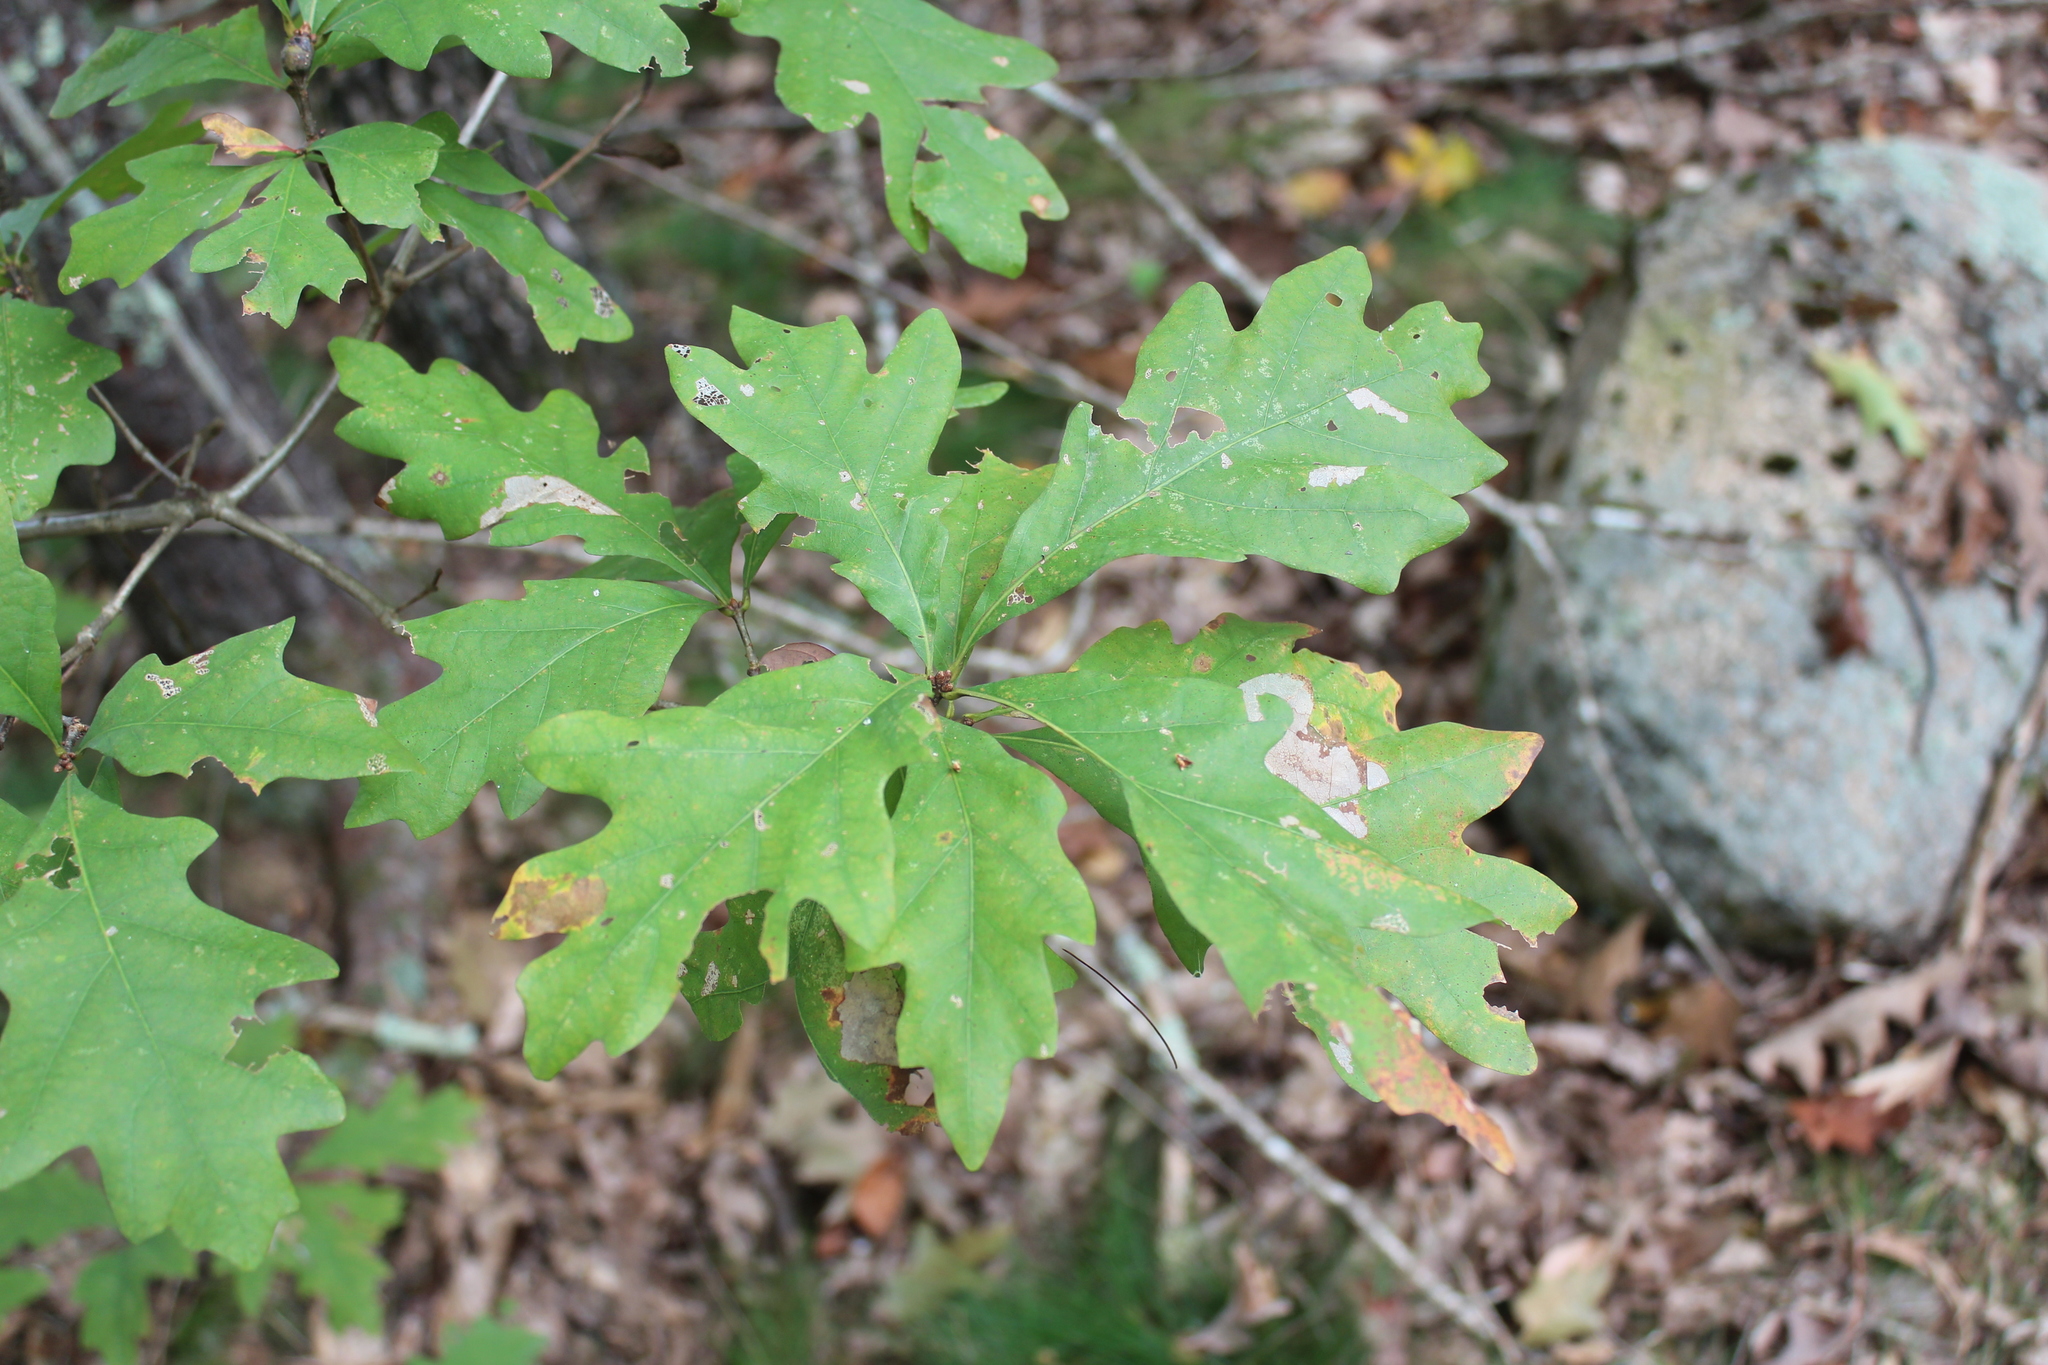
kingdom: Plantae
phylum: Tracheophyta
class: Magnoliopsida
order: Fagales
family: Fagaceae
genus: Quercus
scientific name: Quercus alba
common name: White oak
